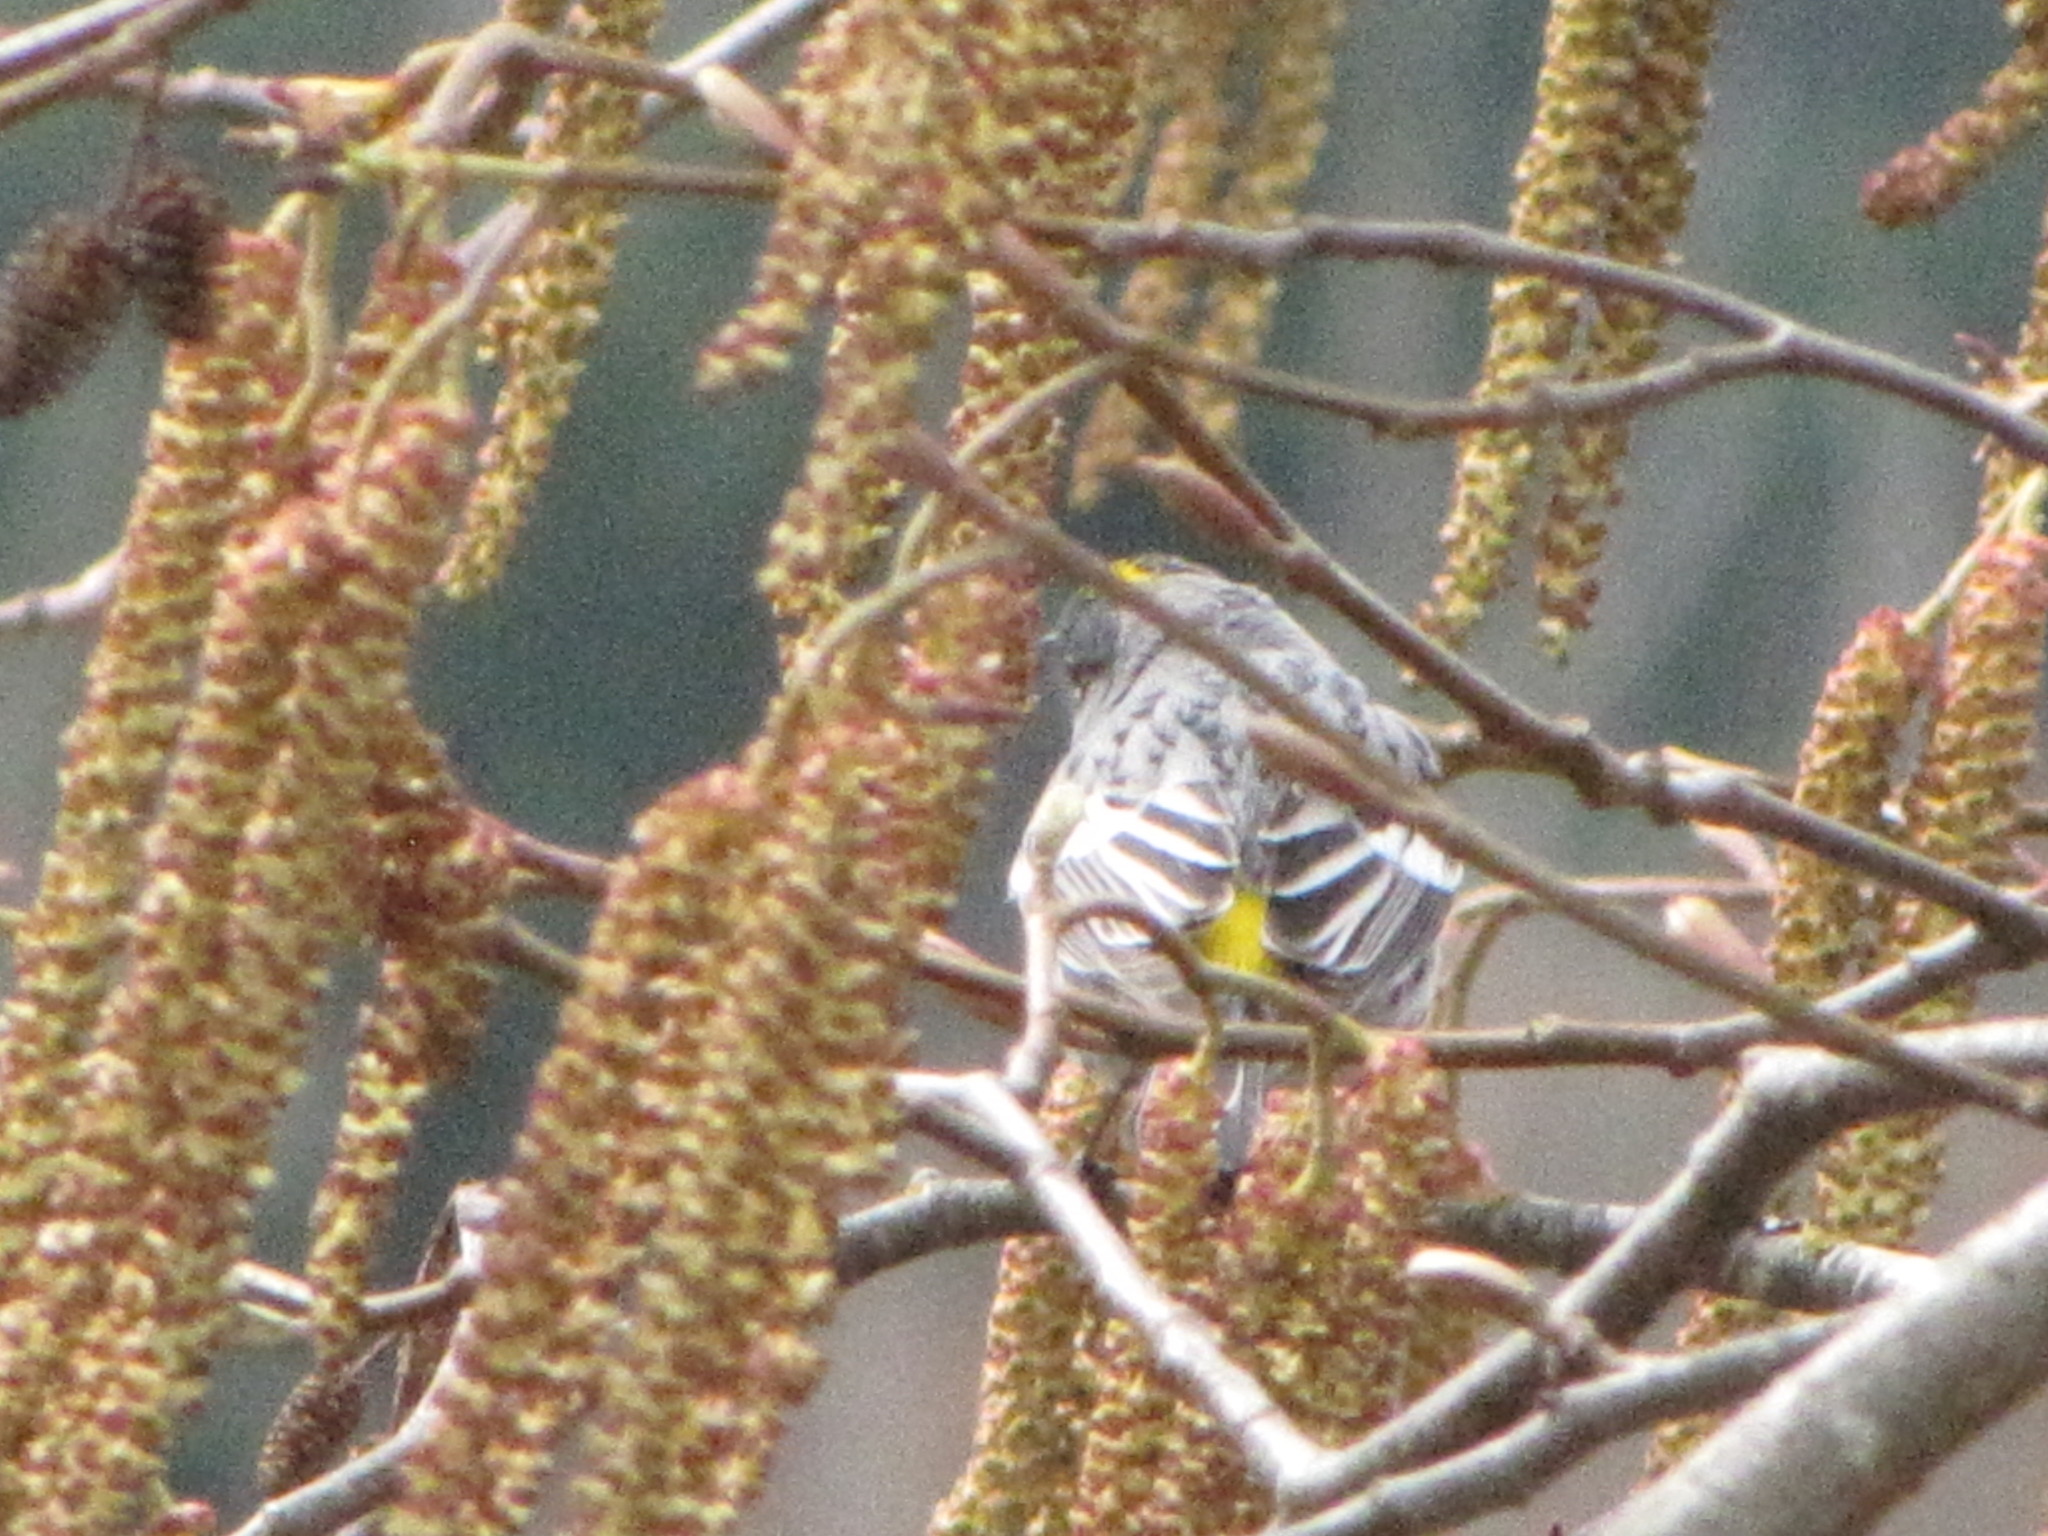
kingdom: Animalia
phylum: Chordata
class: Aves
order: Passeriformes
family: Parulidae
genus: Setophaga
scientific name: Setophaga coronata
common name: Myrtle warbler
